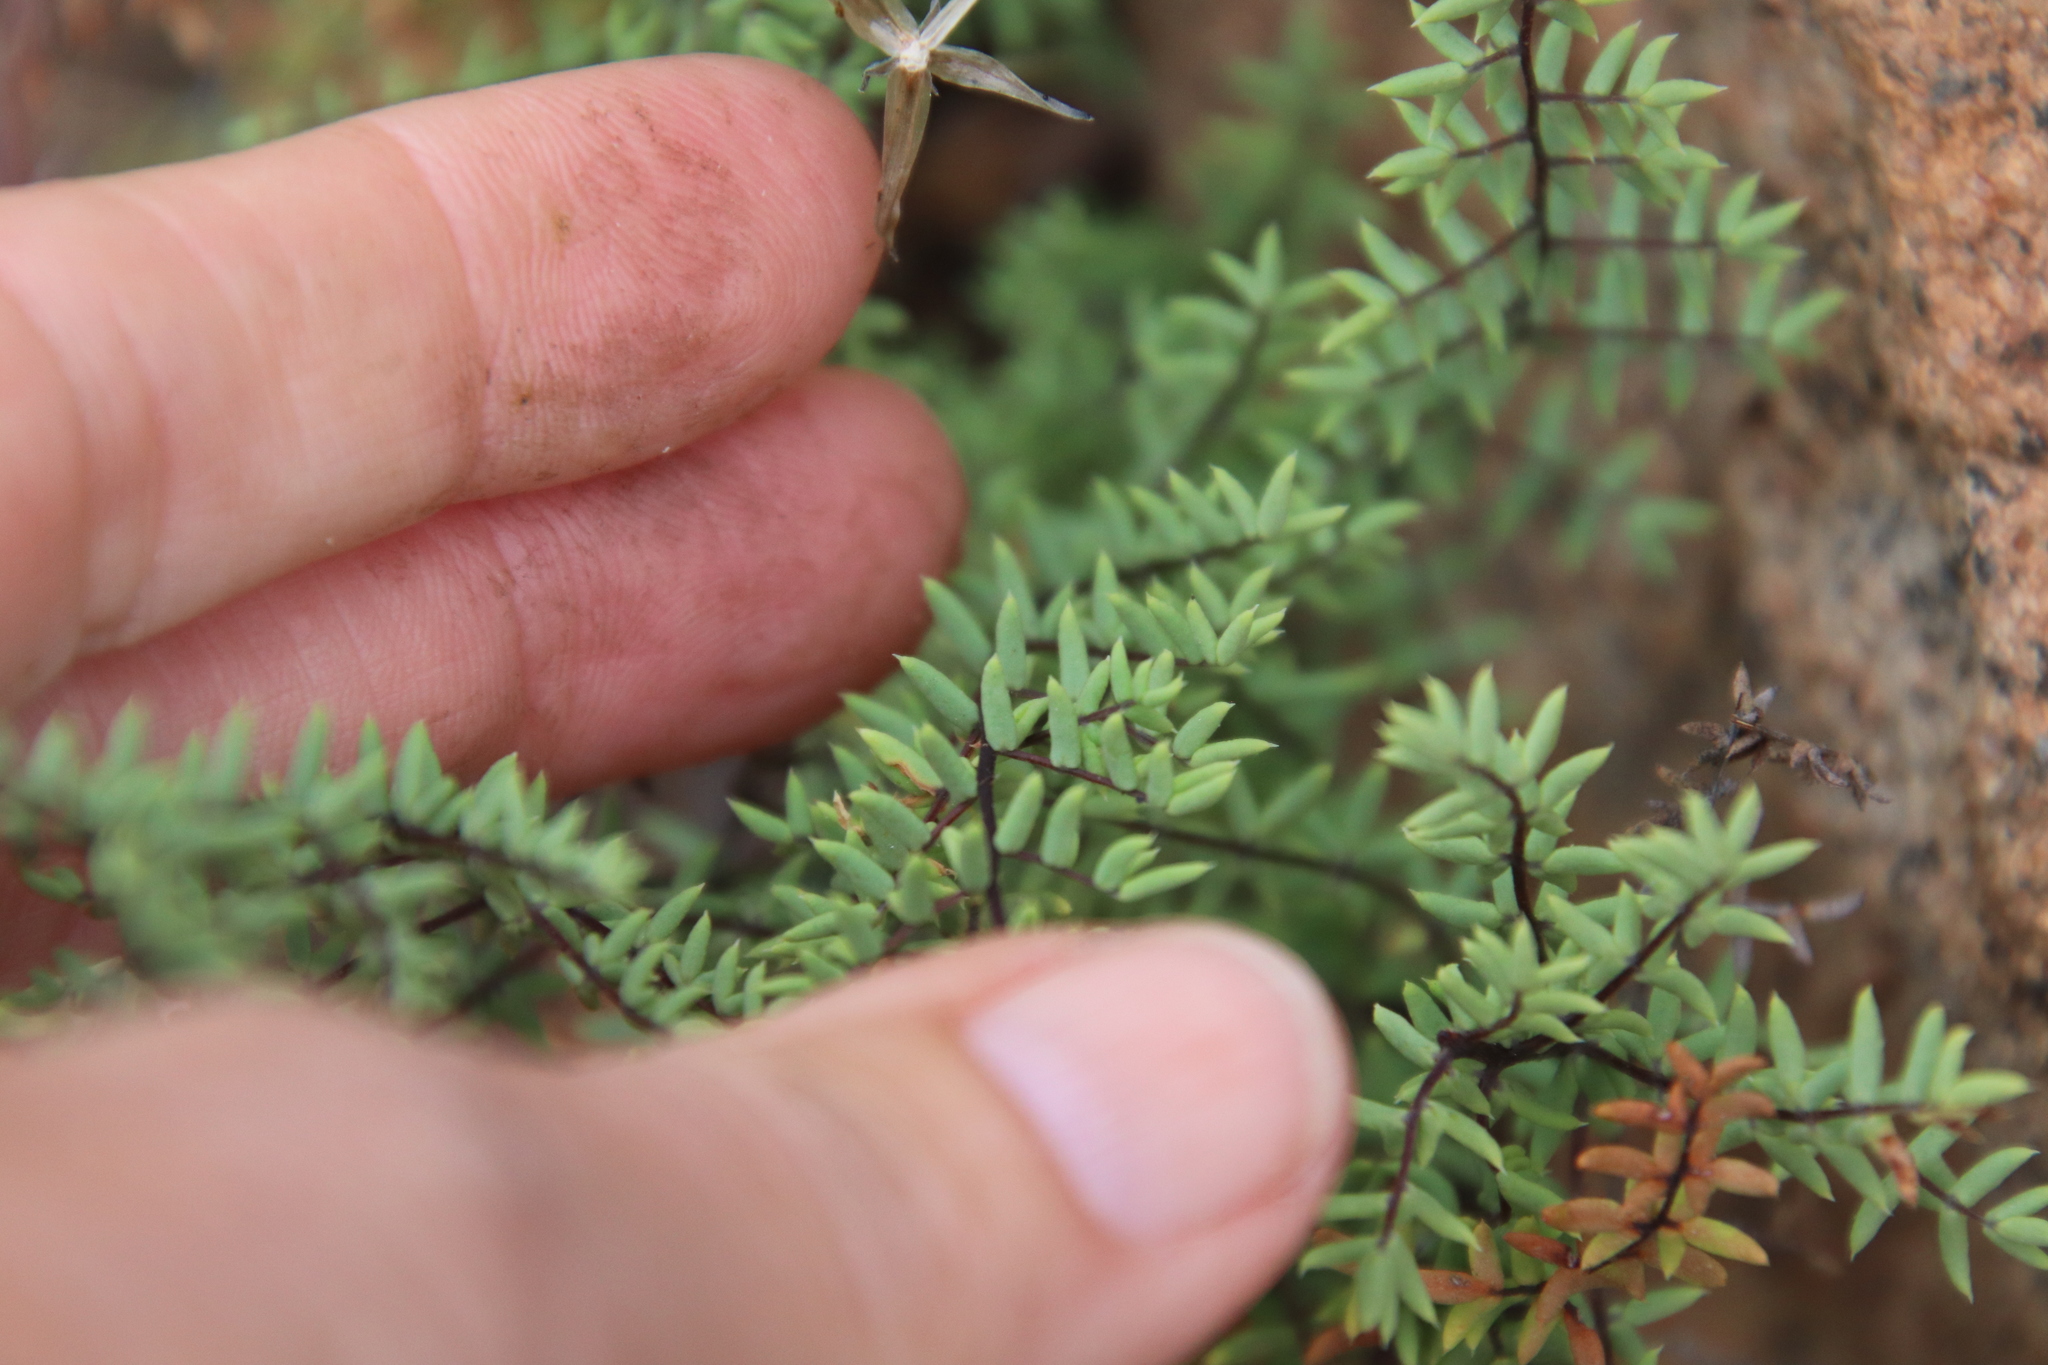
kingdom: Plantae
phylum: Tracheophyta
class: Polypodiopsida
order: Polypodiales
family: Pteridaceae
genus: Pellaea
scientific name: Pellaea mucronata
